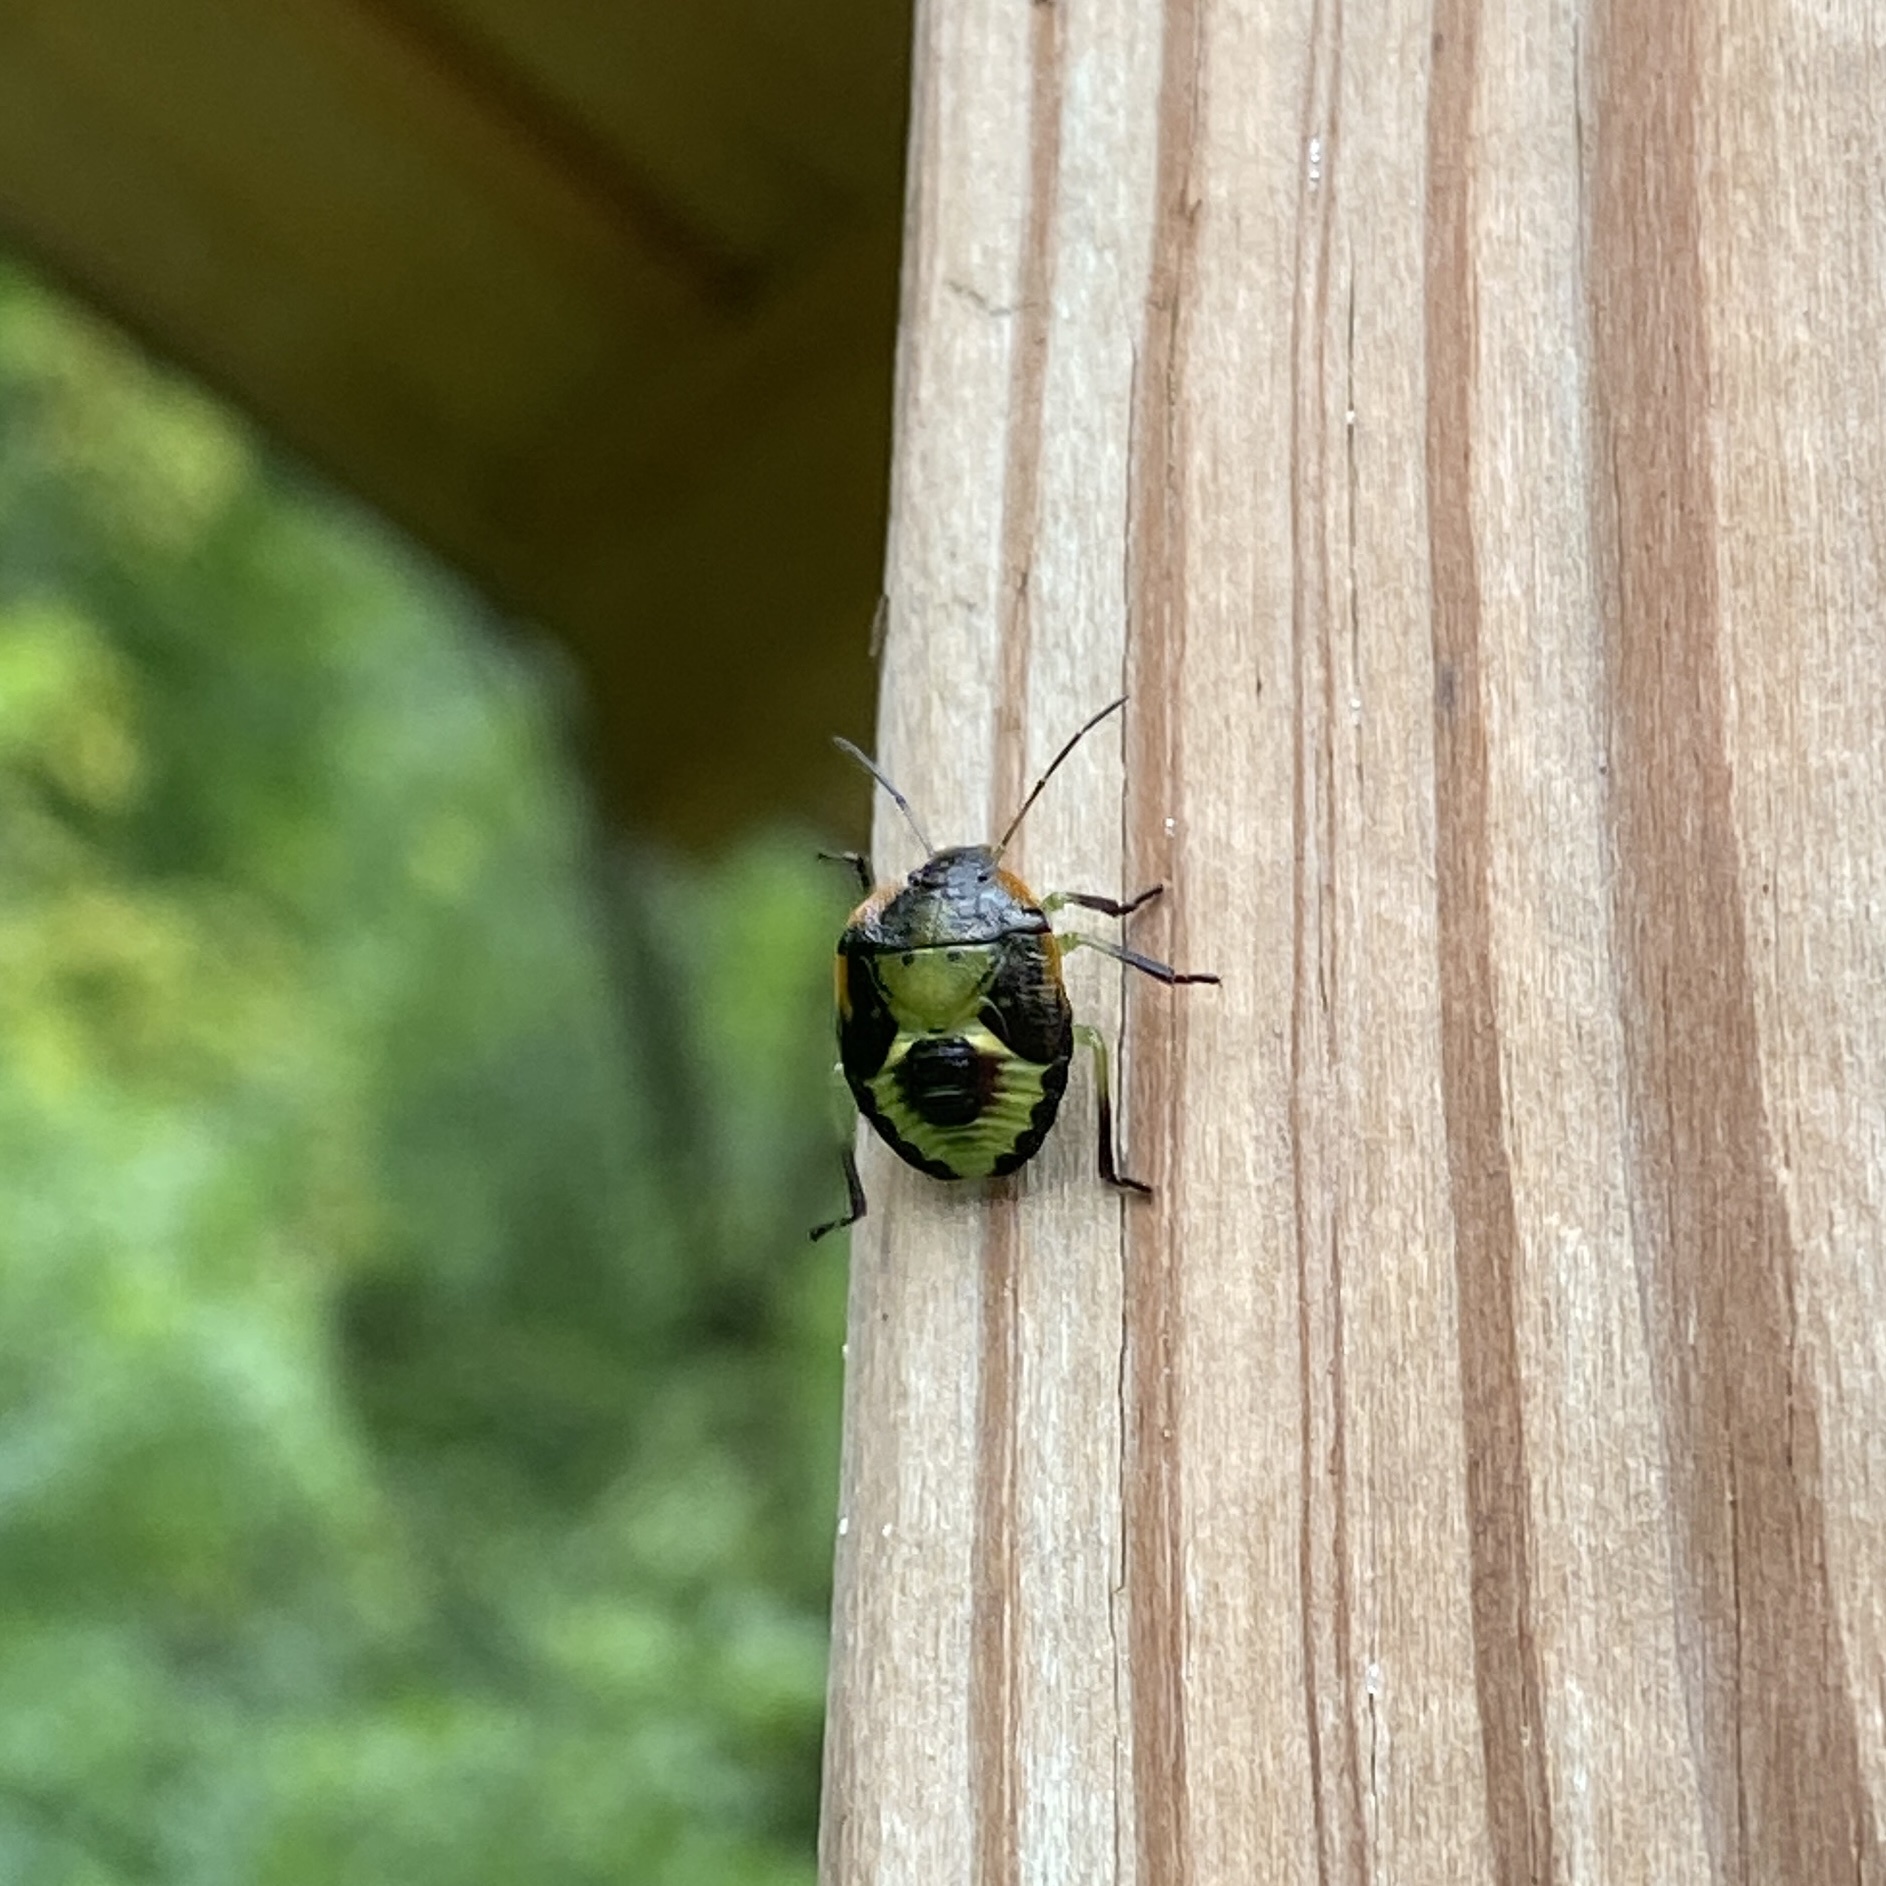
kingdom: Animalia
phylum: Arthropoda
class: Insecta
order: Hemiptera
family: Pentatomidae
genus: Chinavia
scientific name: Chinavia hilaris
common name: Green stink bug
